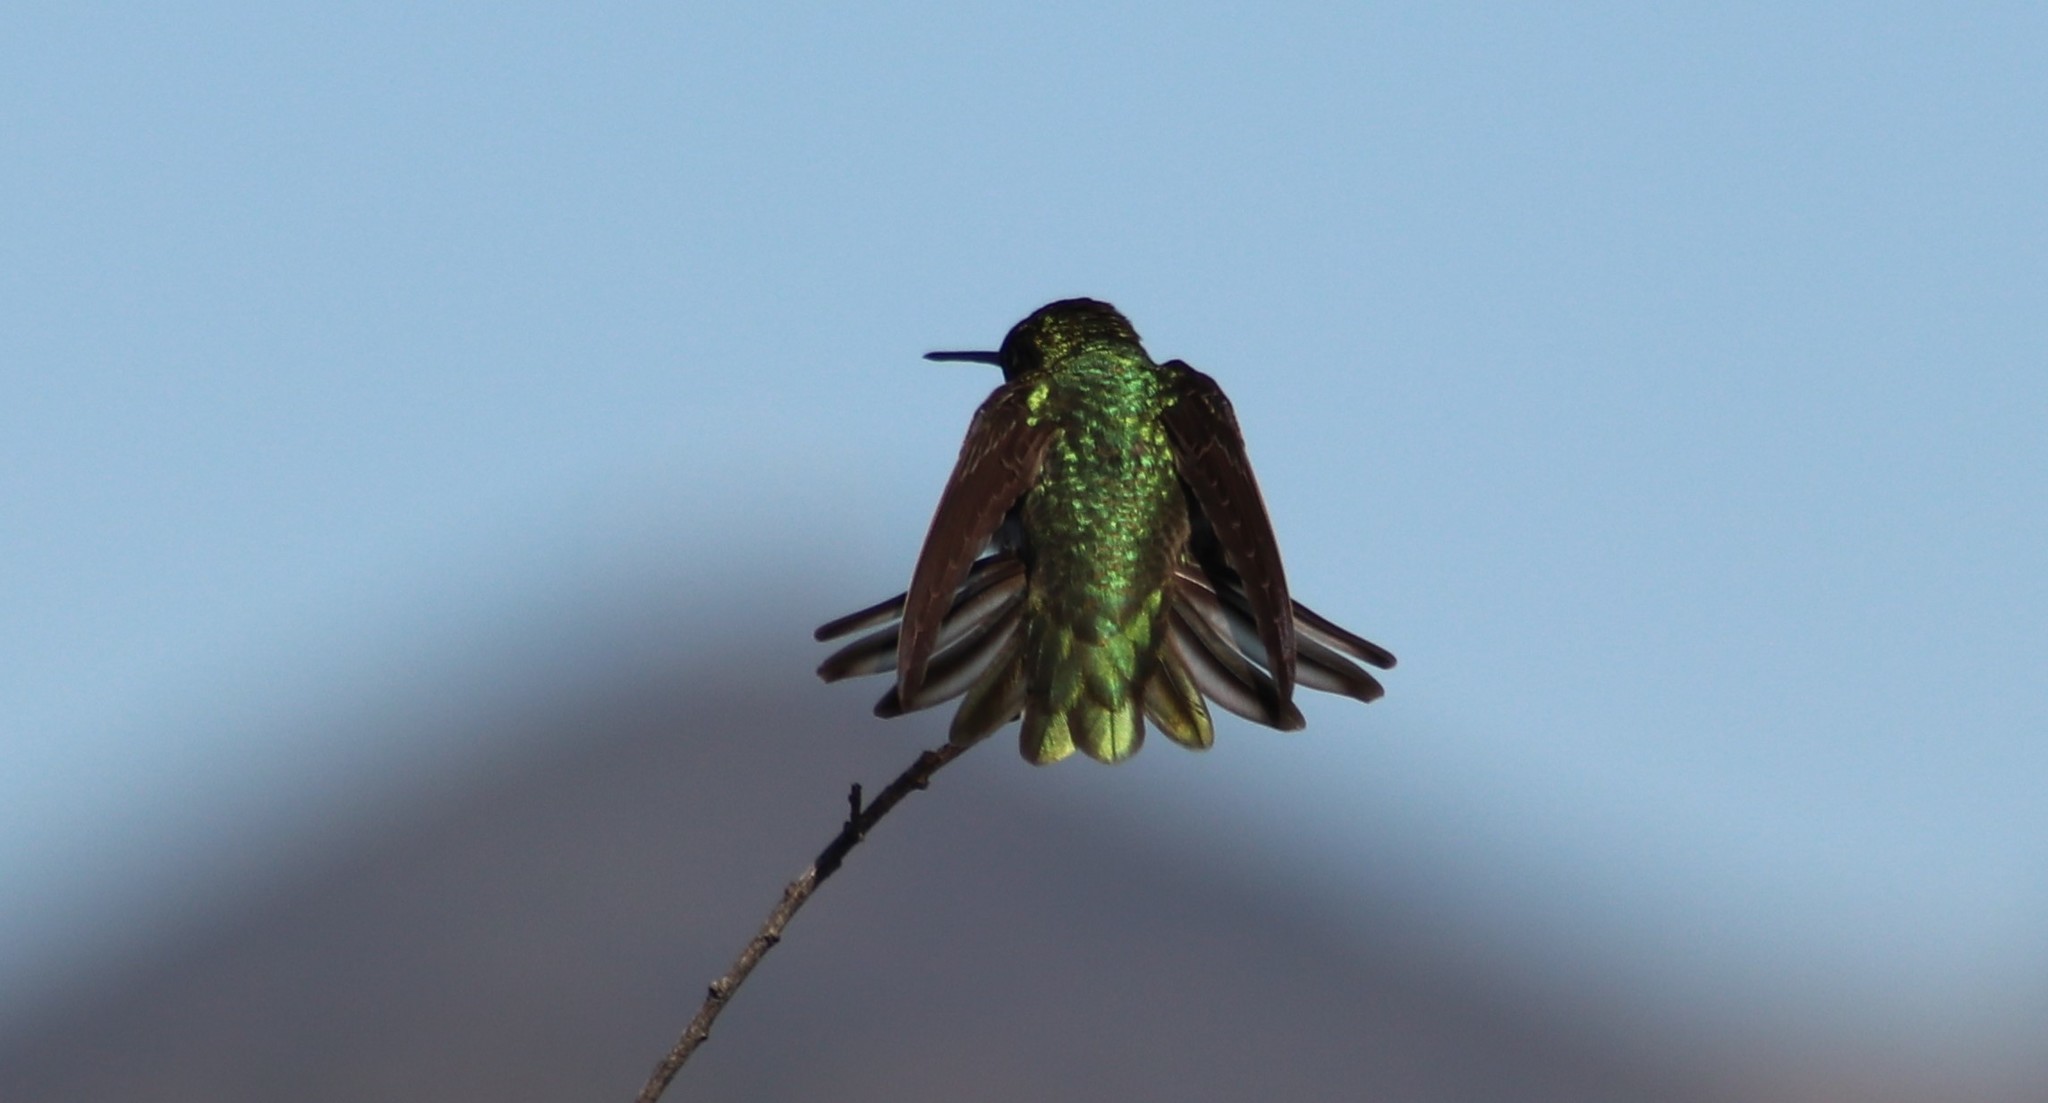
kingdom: Animalia
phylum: Chordata
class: Aves
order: Apodiformes
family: Trochilidae
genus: Calypte
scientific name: Calypte anna
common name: Anna's hummingbird
